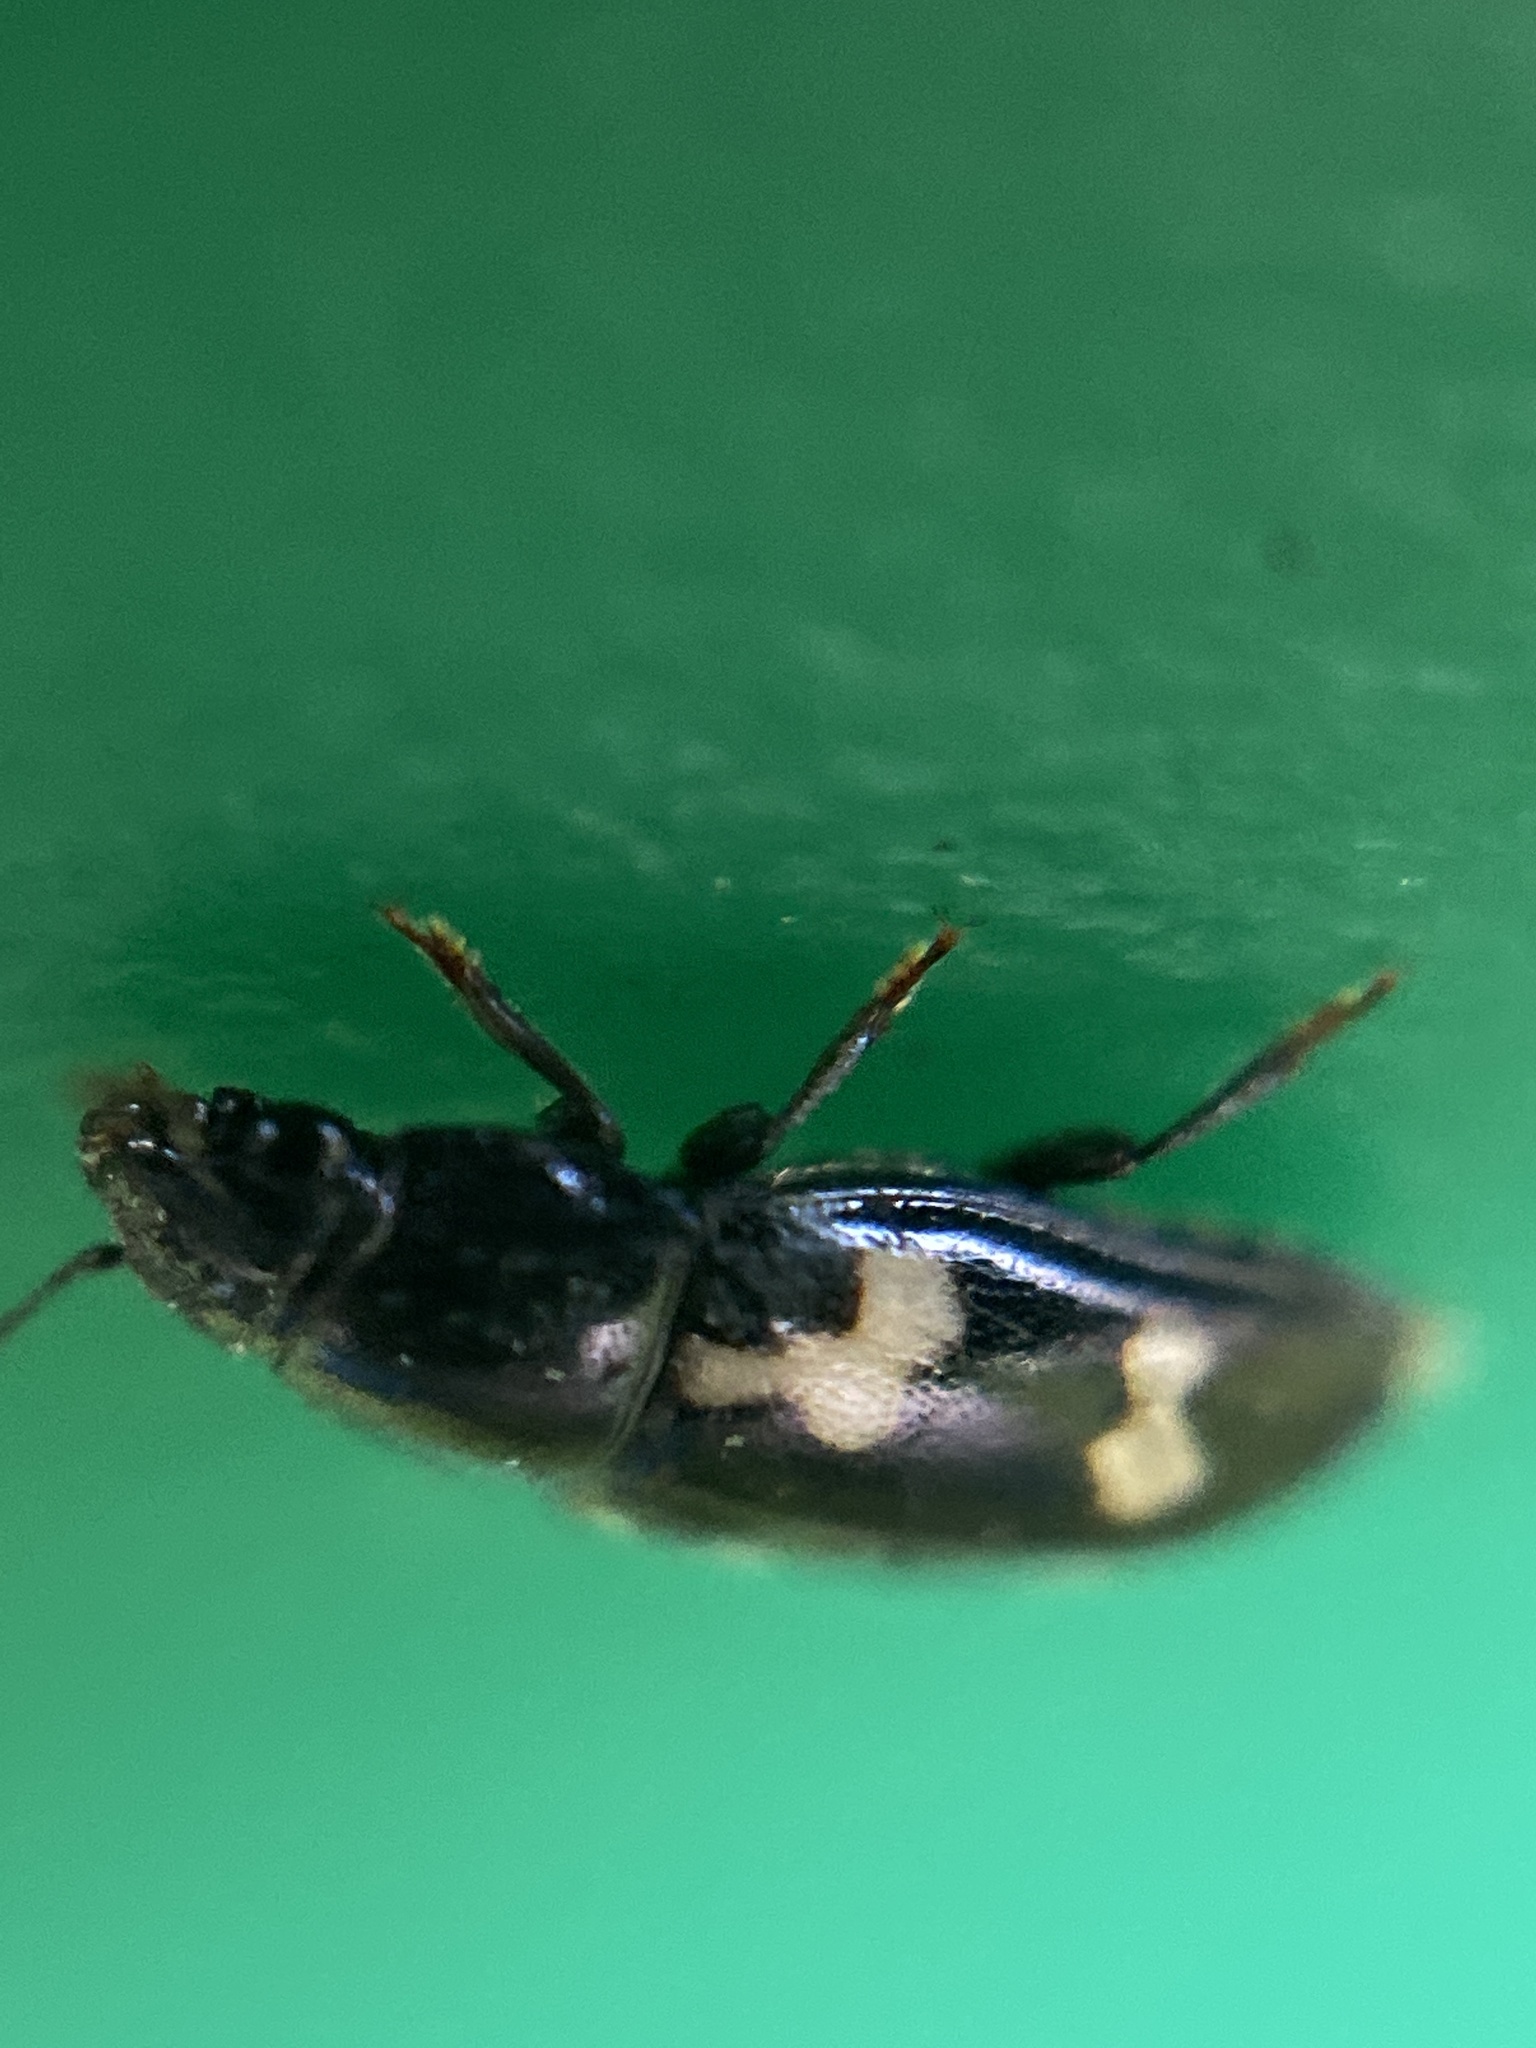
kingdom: Animalia
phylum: Arthropoda
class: Insecta
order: Coleoptera
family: Nitidulidae
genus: Glischrochilus
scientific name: Glischrochilus quadriguttatus
